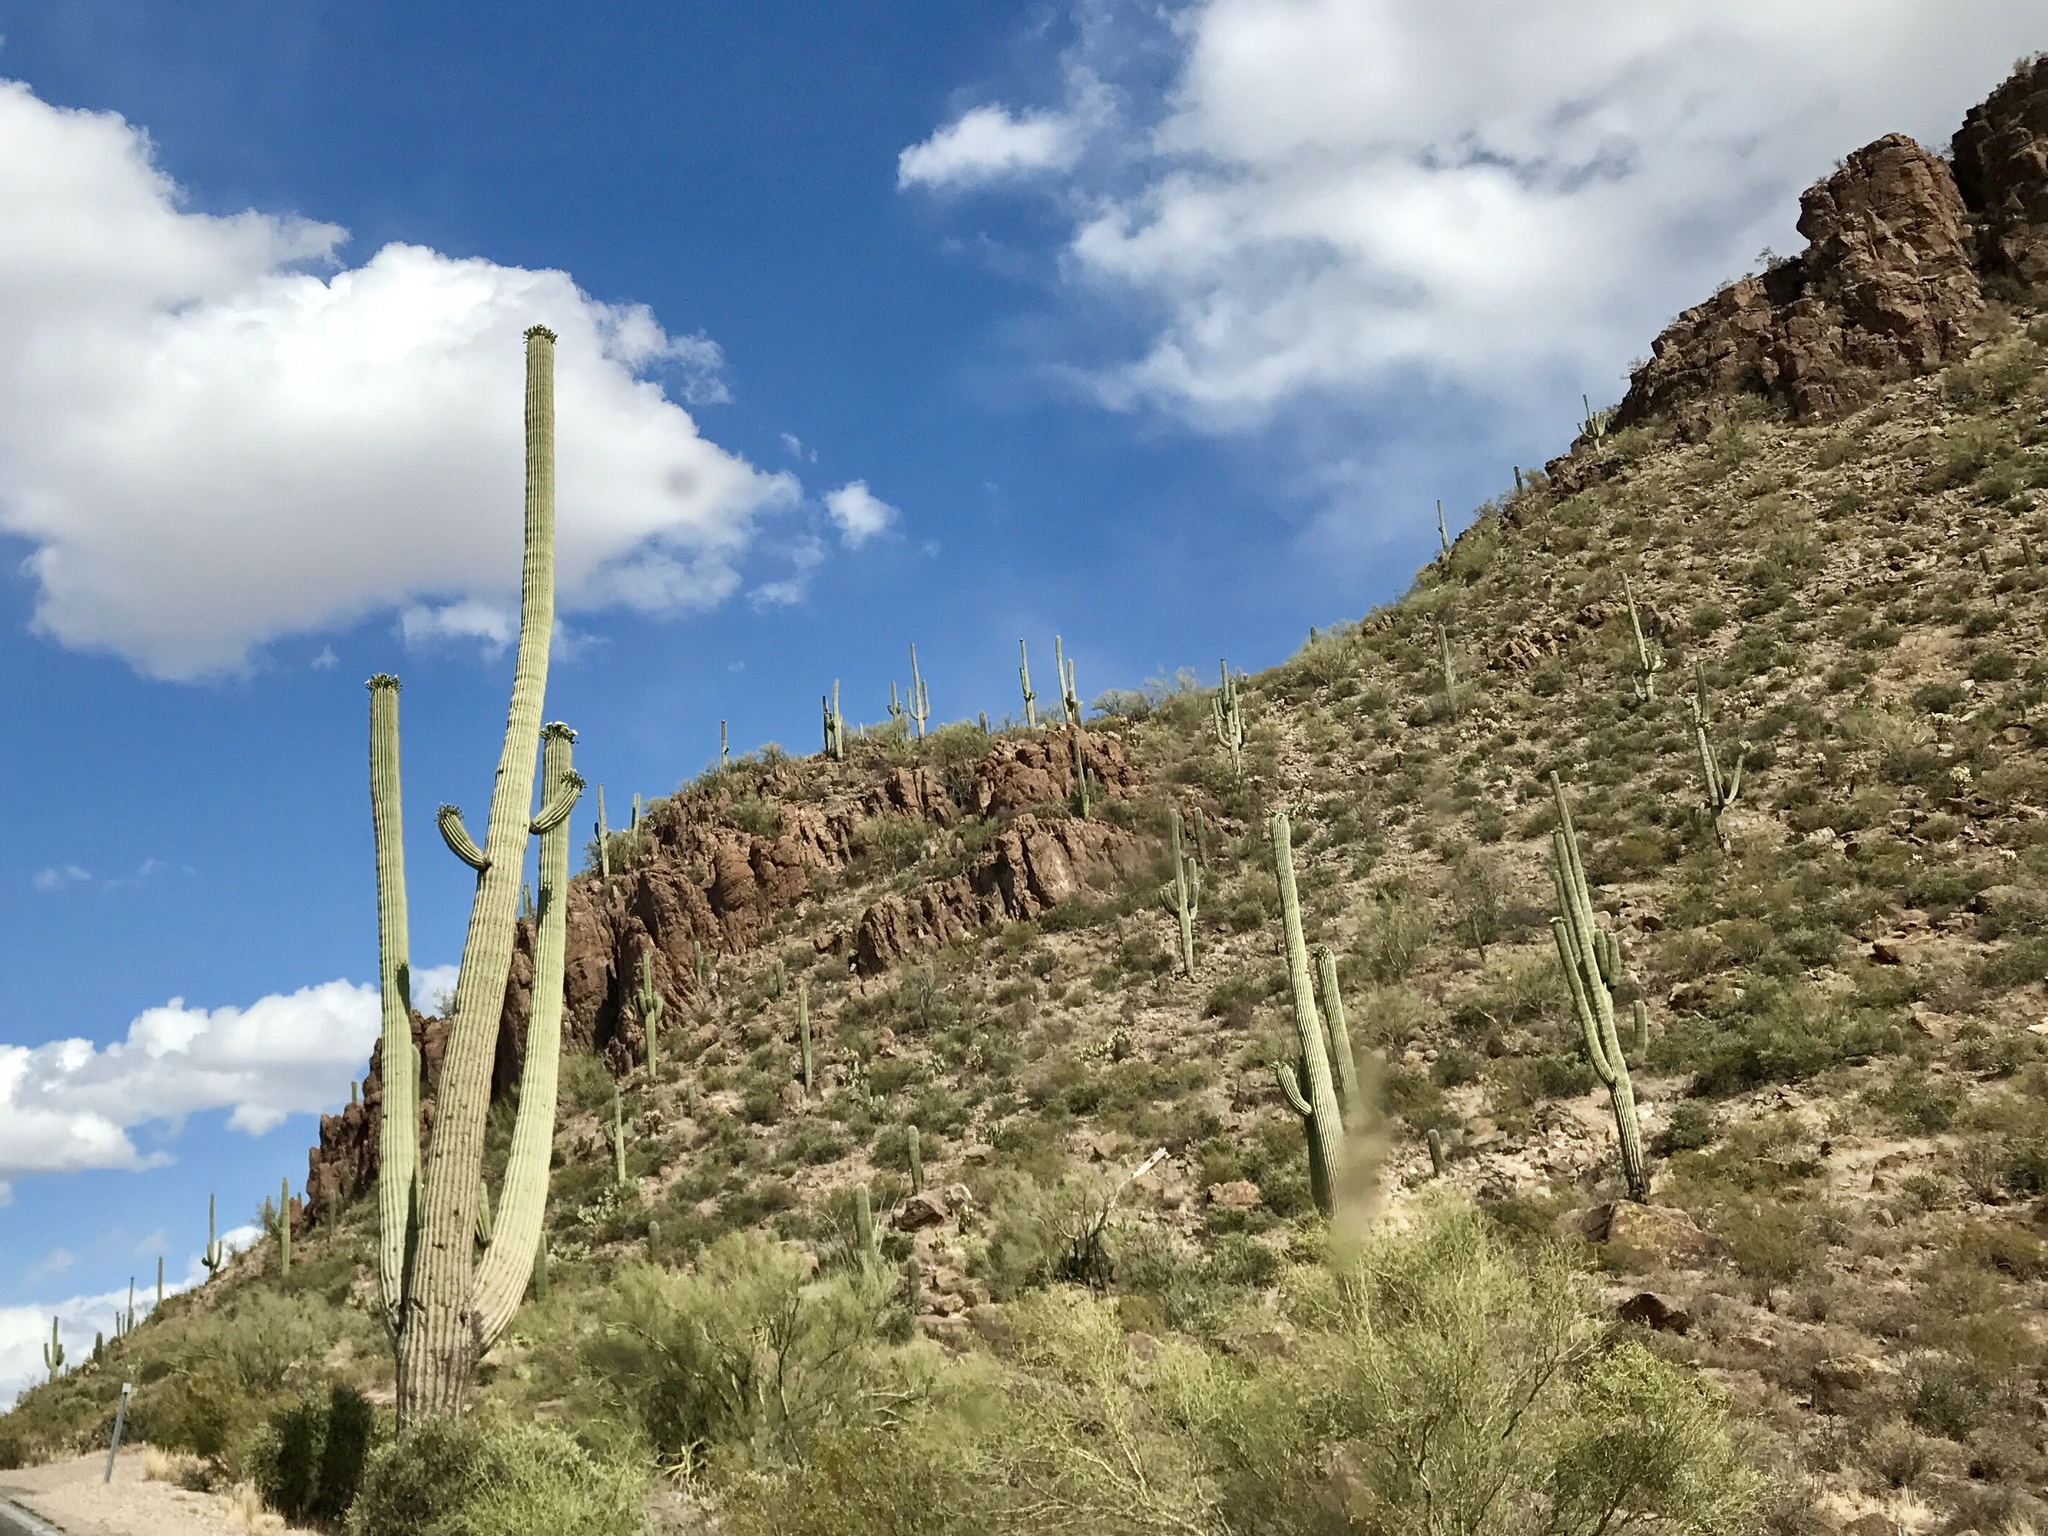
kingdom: Plantae
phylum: Tracheophyta
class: Magnoliopsida
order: Caryophyllales
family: Cactaceae
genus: Carnegiea
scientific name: Carnegiea gigantea
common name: Saguaro
